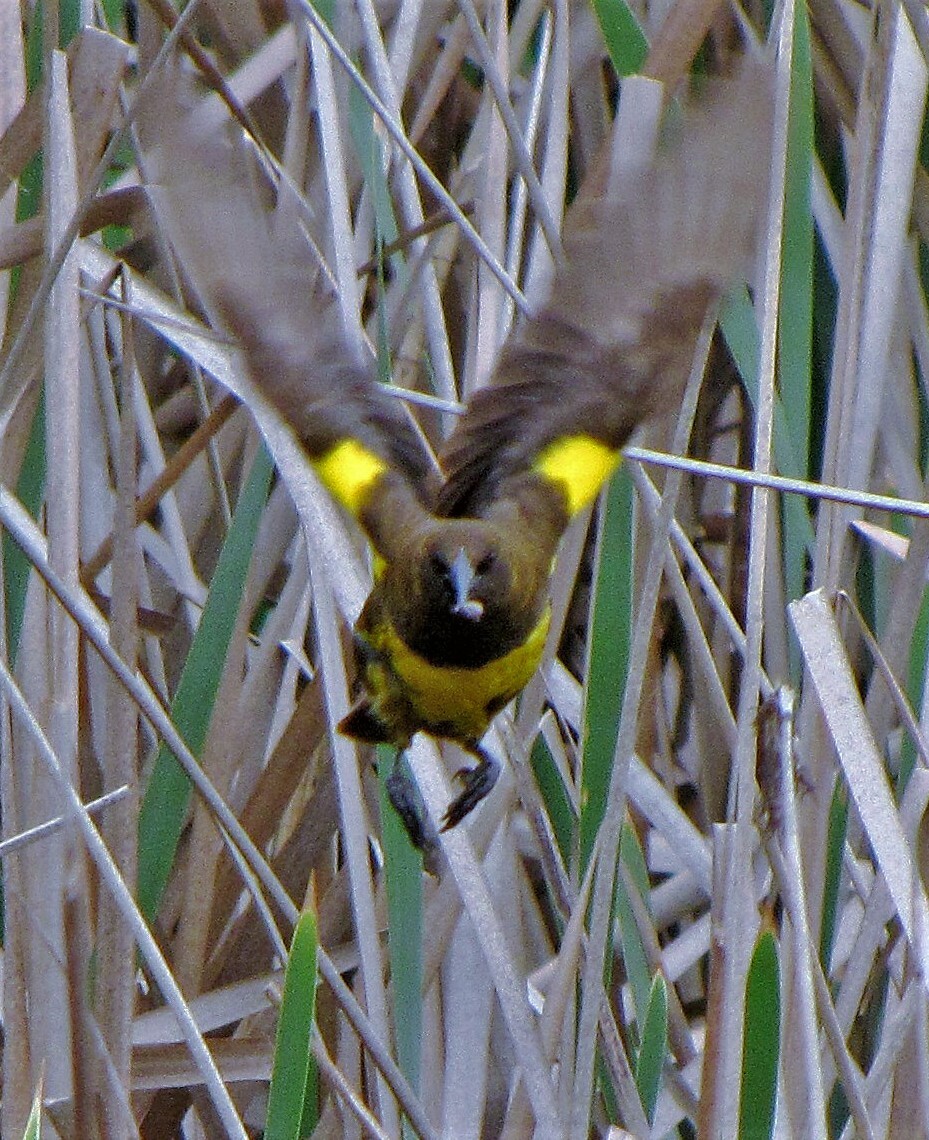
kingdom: Animalia
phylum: Chordata
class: Aves
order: Passeriformes
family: Icteridae
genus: Pseudoleistes
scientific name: Pseudoleistes virescens
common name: Brown-and-yellow marshbird
